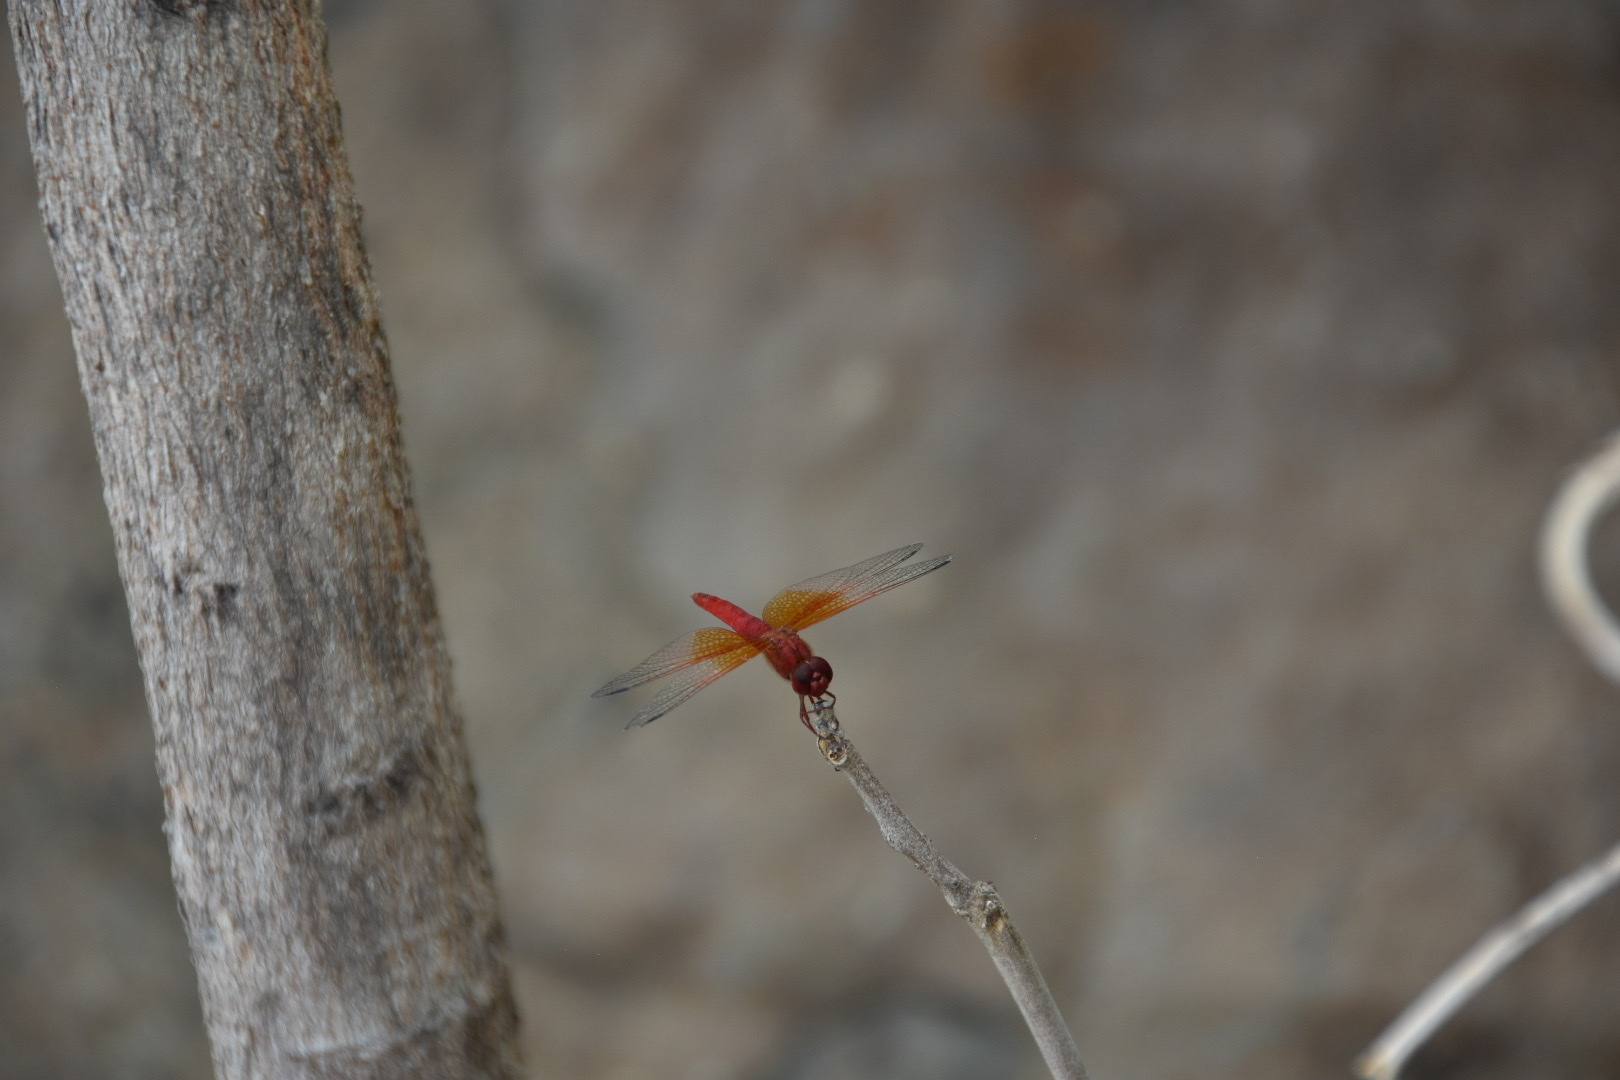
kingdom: Animalia
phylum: Arthropoda
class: Insecta
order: Odonata
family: Libellulidae
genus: Brachythemis
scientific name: Brachythemis lacustris
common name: Red groundling
